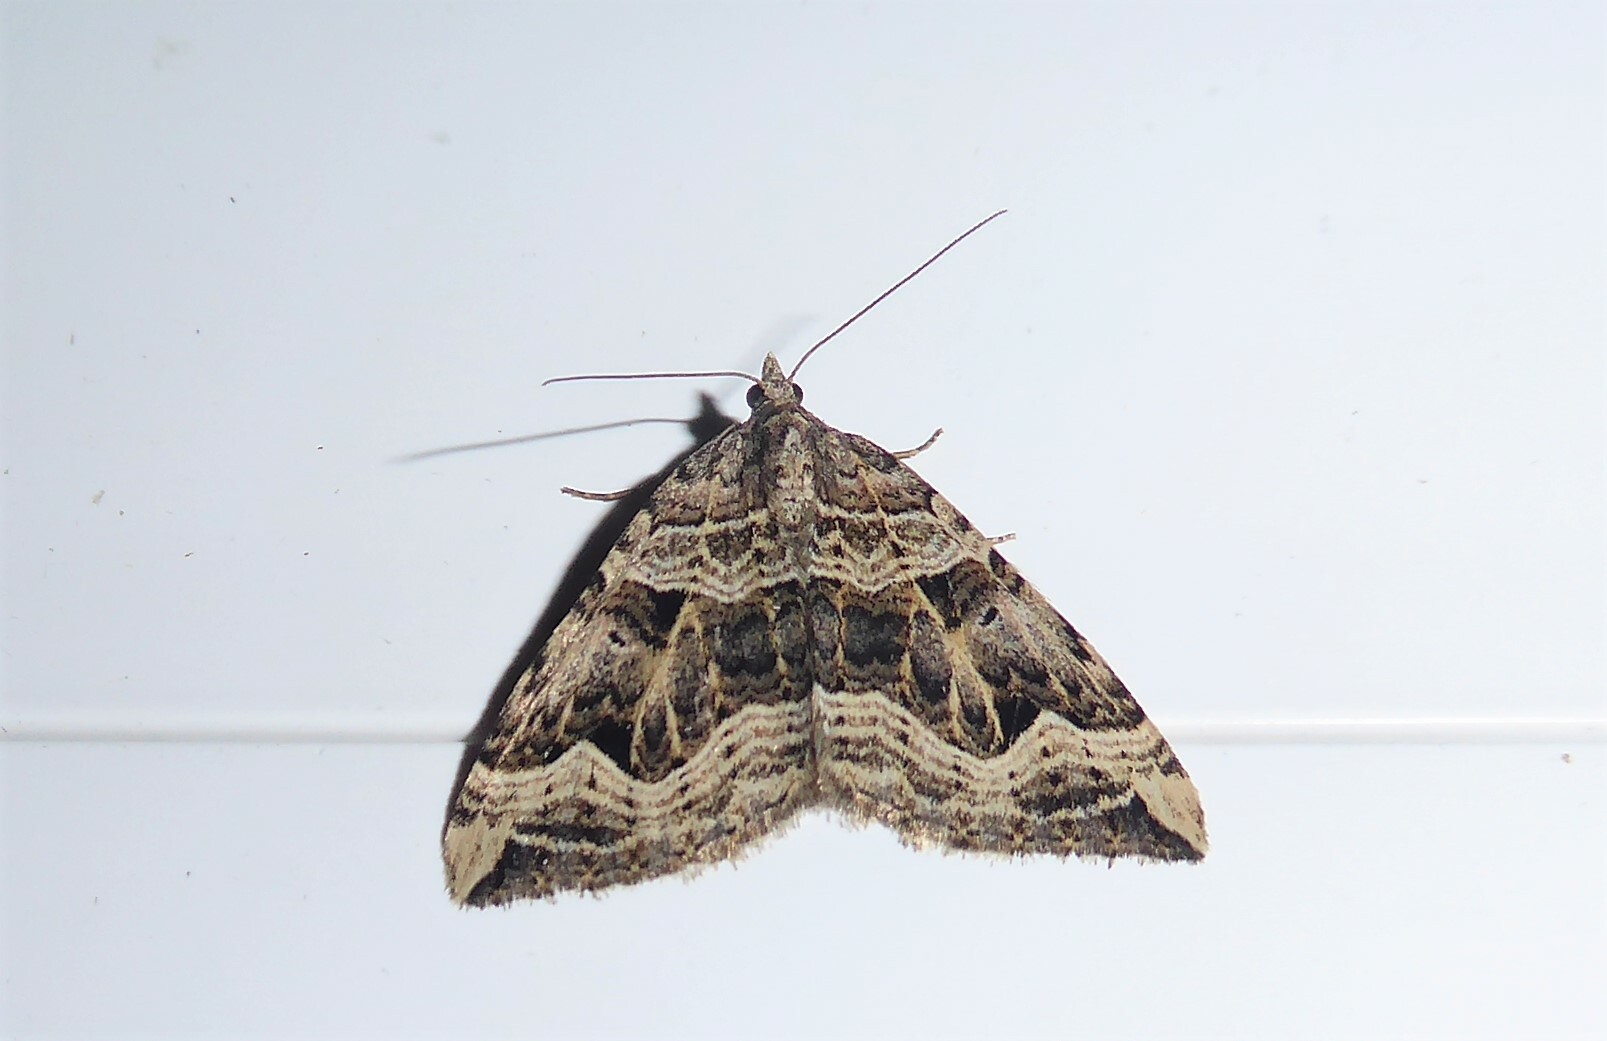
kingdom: Animalia
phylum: Arthropoda
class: Insecta
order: Lepidoptera
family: Geometridae
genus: Xanthorhoe
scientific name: Xanthorhoe semifissata
